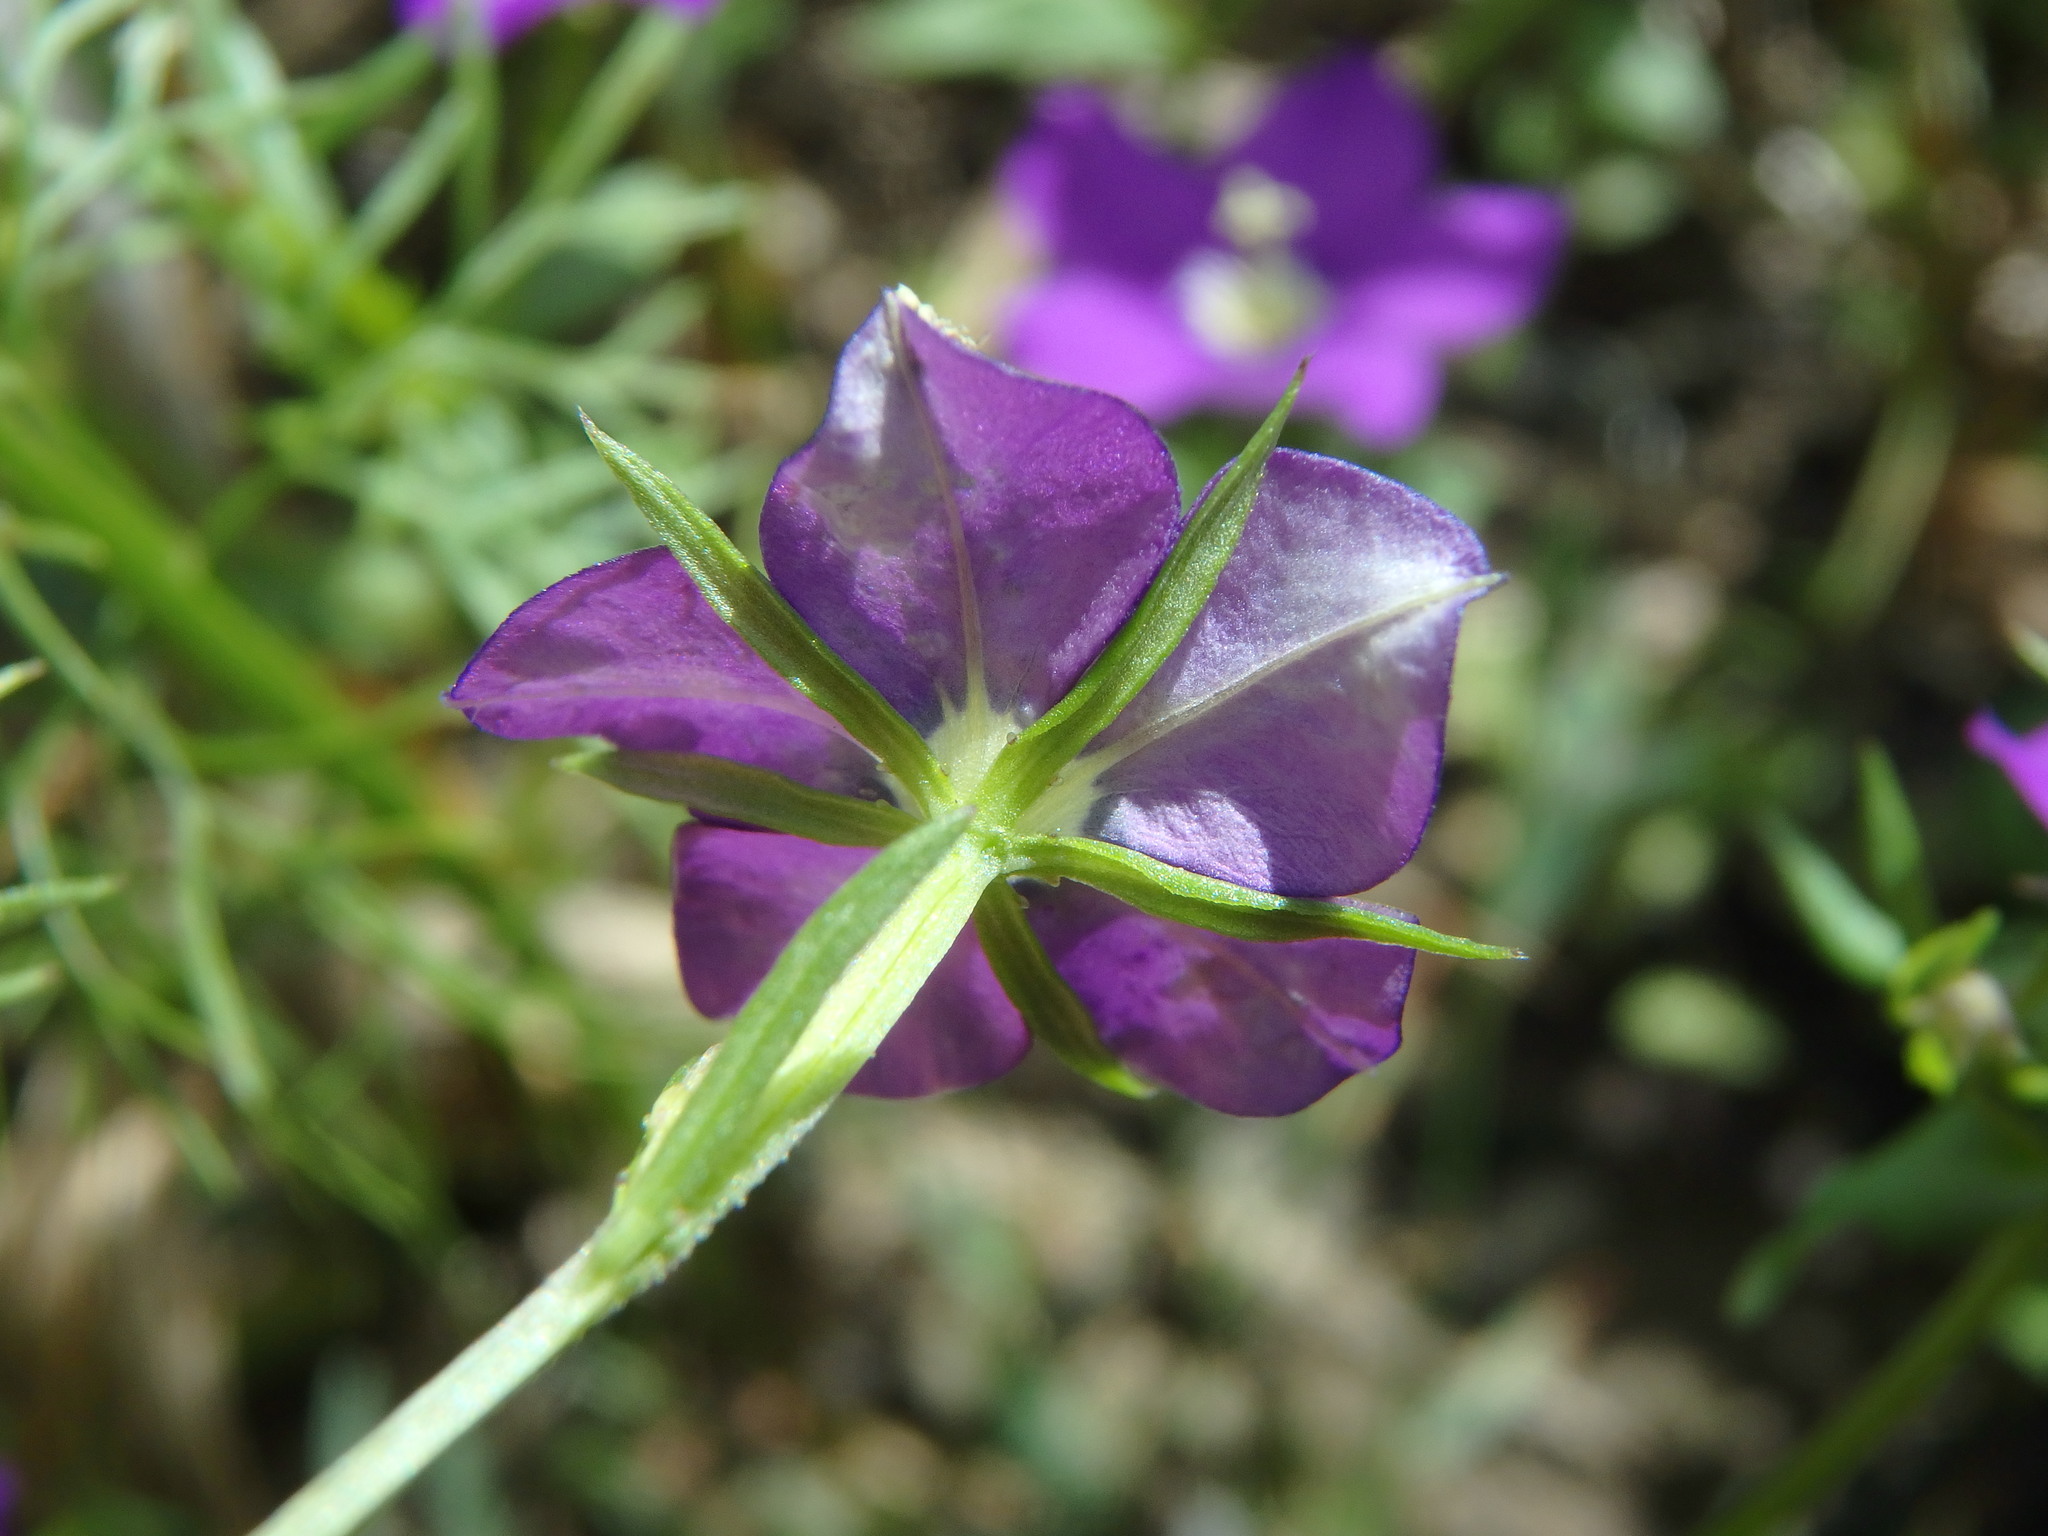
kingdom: Plantae
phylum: Tracheophyta
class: Magnoliopsida
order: Asterales
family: Campanulaceae
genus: Legousia
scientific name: Legousia speculum-veneris
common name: Large venus's-looking-glass
